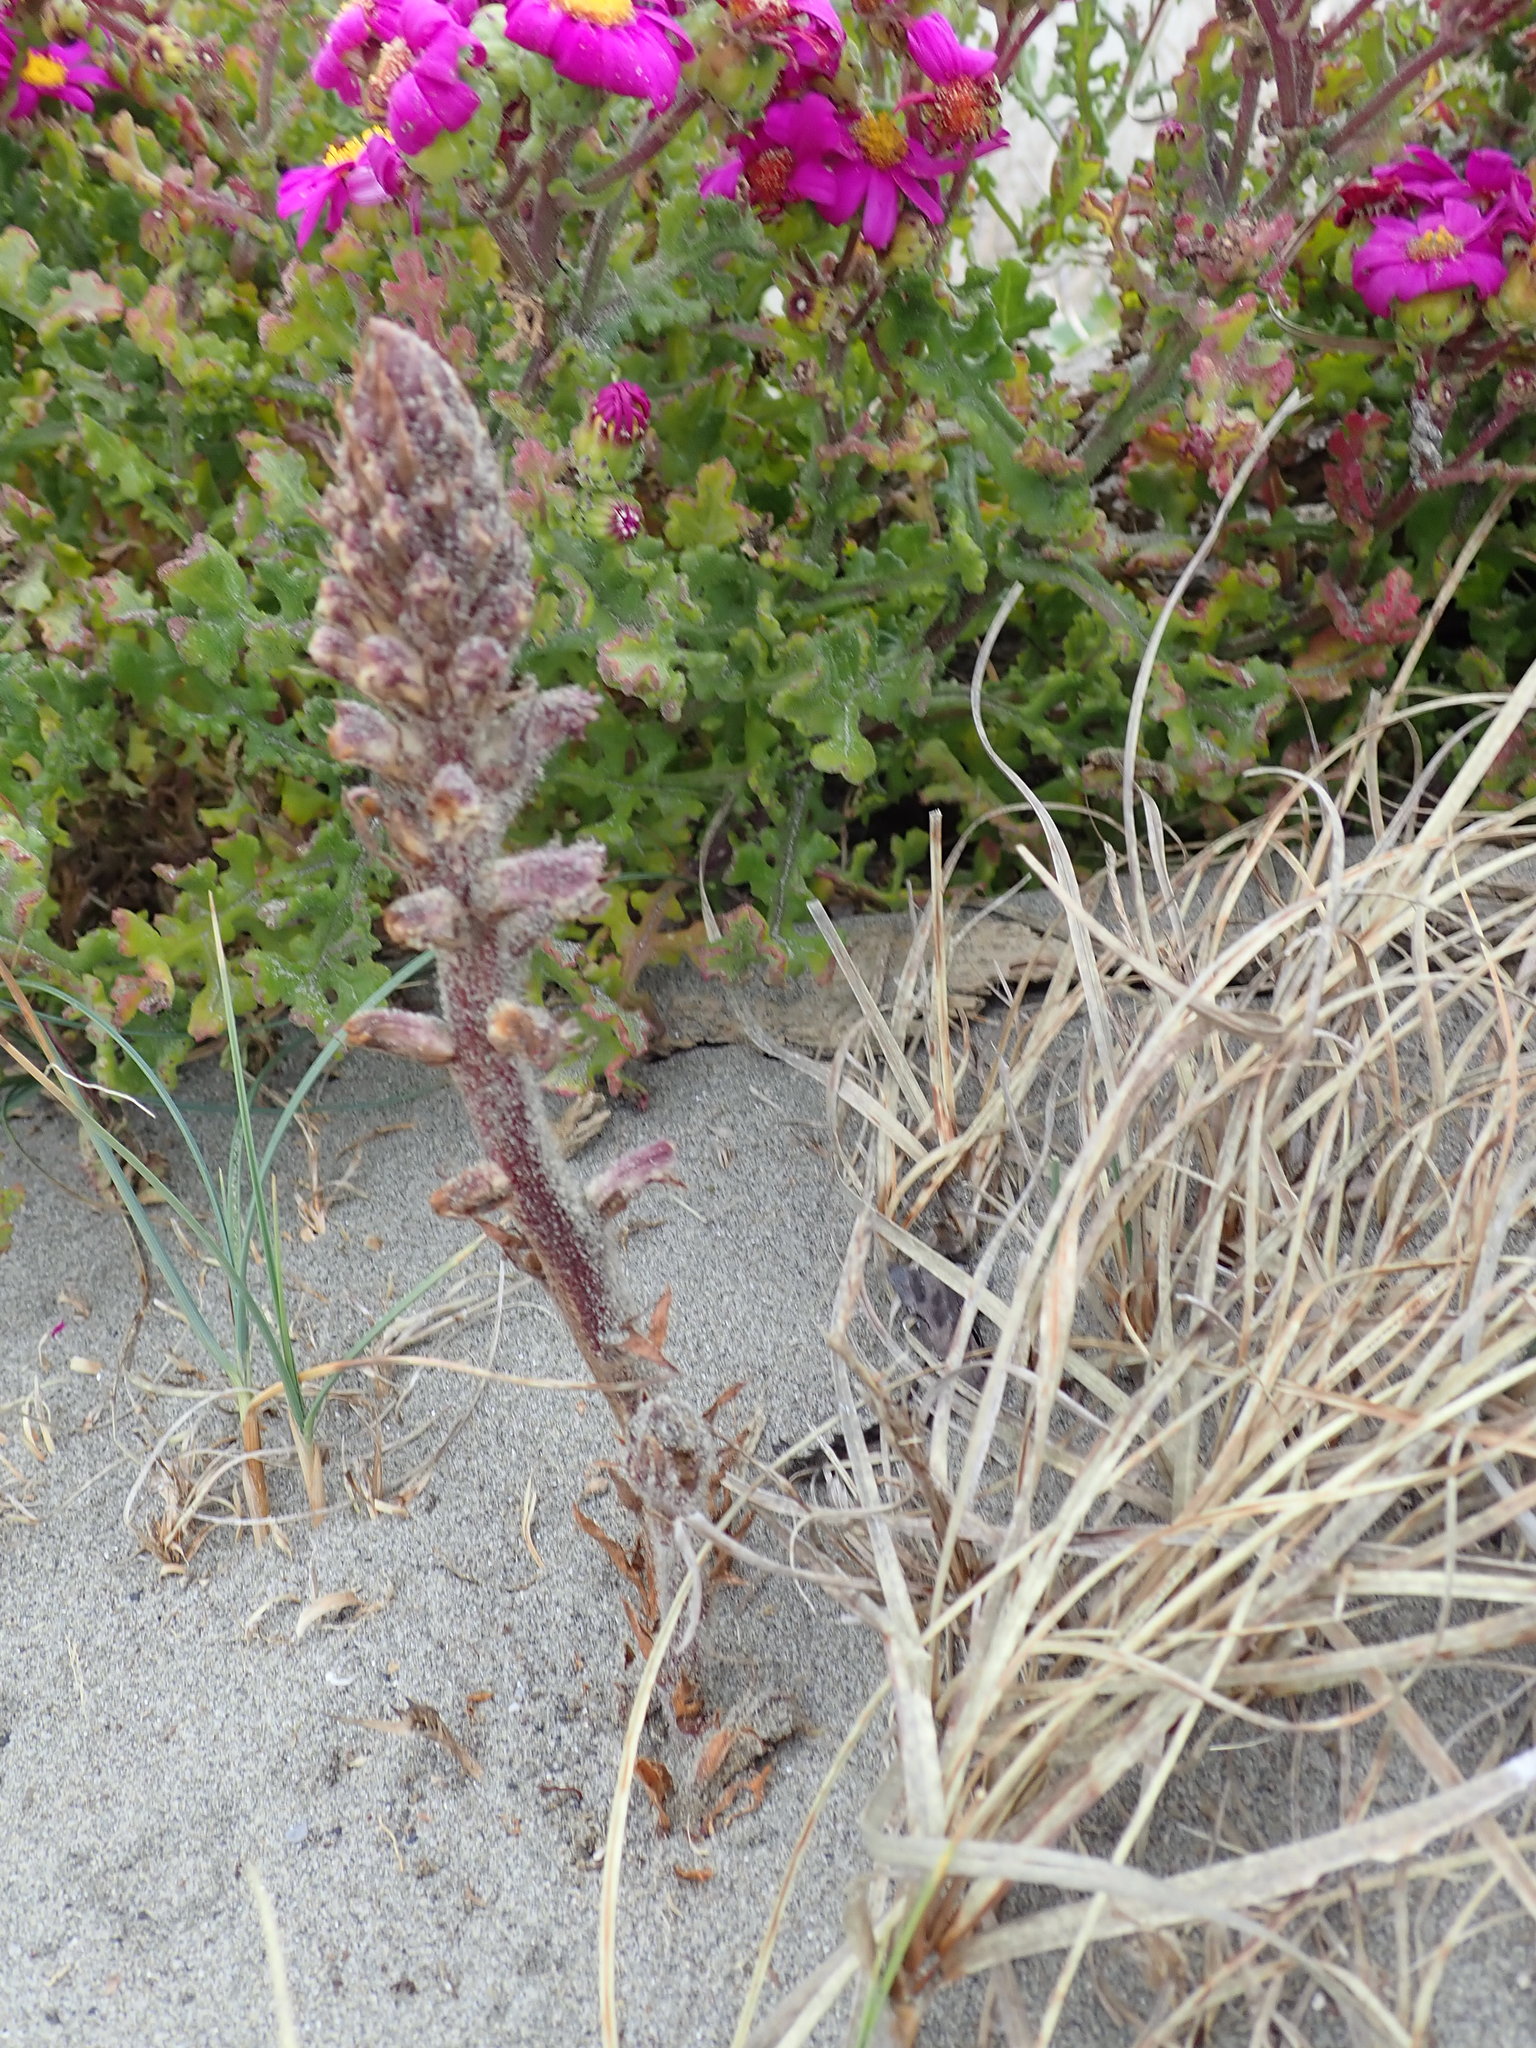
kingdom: Plantae
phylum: Tracheophyta
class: Magnoliopsida
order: Lamiales
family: Orobanchaceae
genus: Orobanche
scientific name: Orobanche minor
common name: Common broomrape
